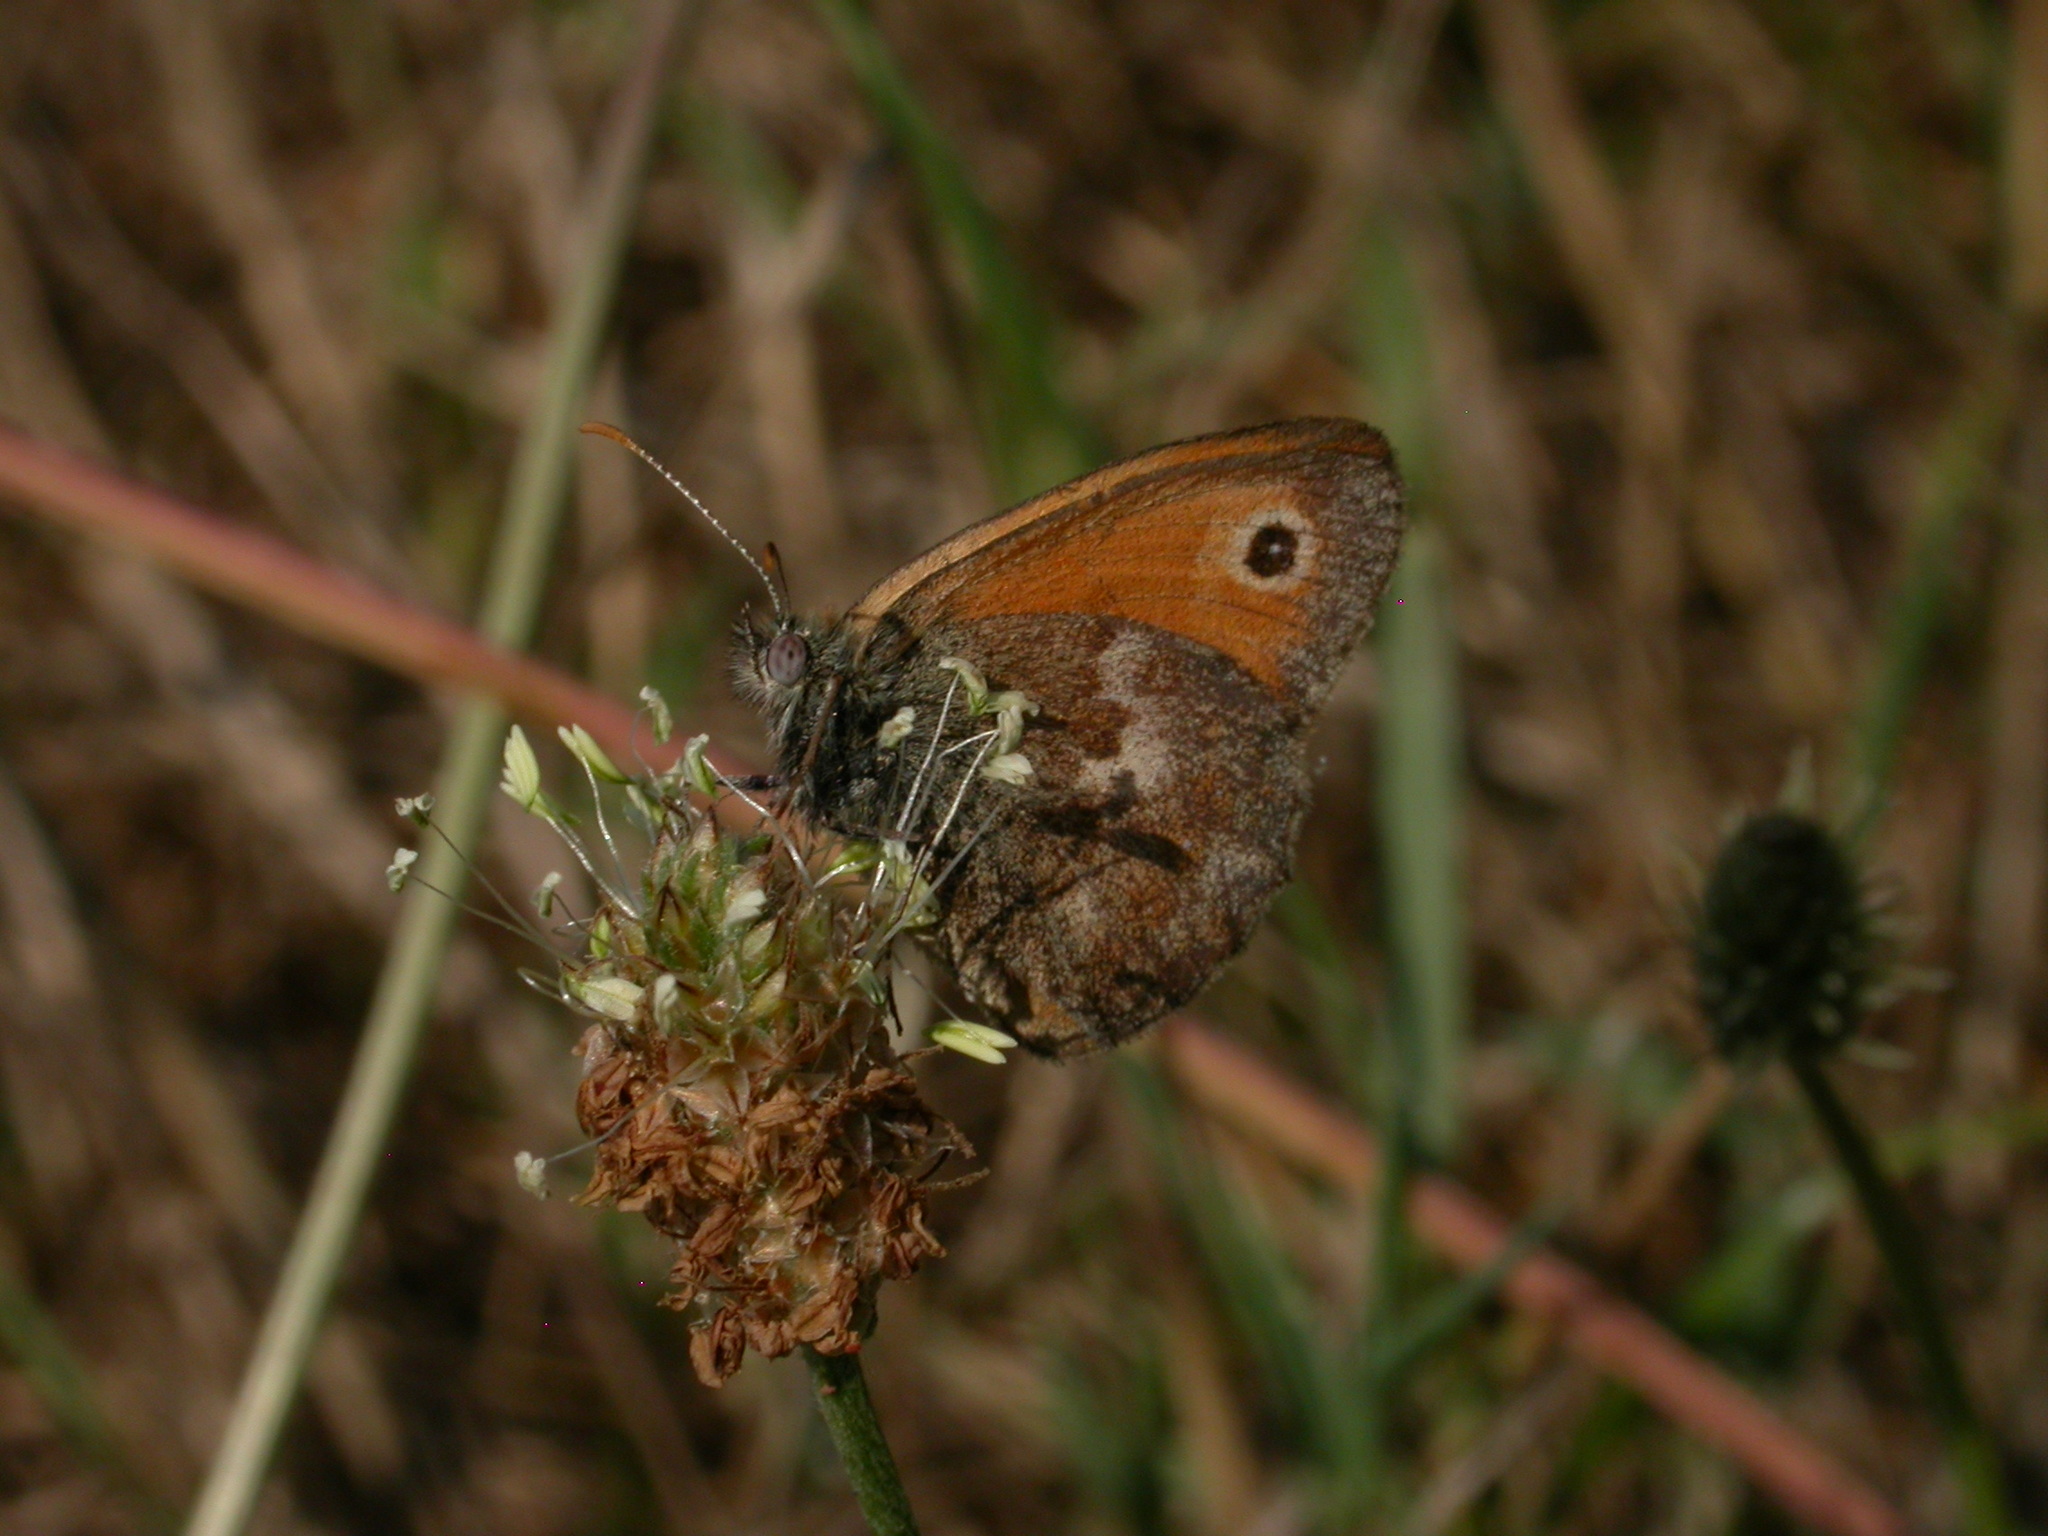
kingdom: Animalia
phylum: Arthropoda
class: Insecta
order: Lepidoptera
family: Nymphalidae
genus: Coenonympha
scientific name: Coenonympha pamphilus
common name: Small heath
